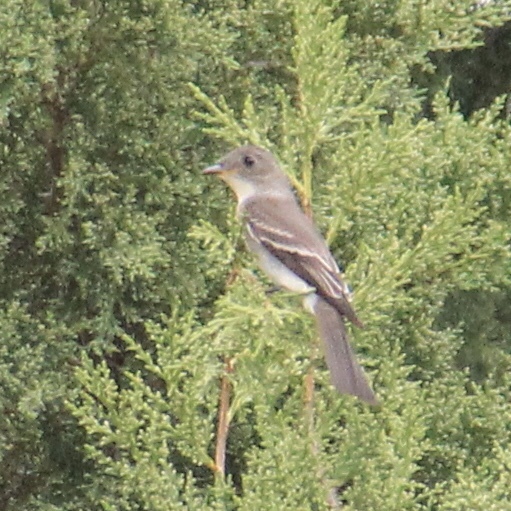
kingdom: Animalia
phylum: Chordata
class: Aves
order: Passeriformes
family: Tyrannidae
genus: Contopus
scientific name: Contopus virens
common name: Eastern wood-pewee
